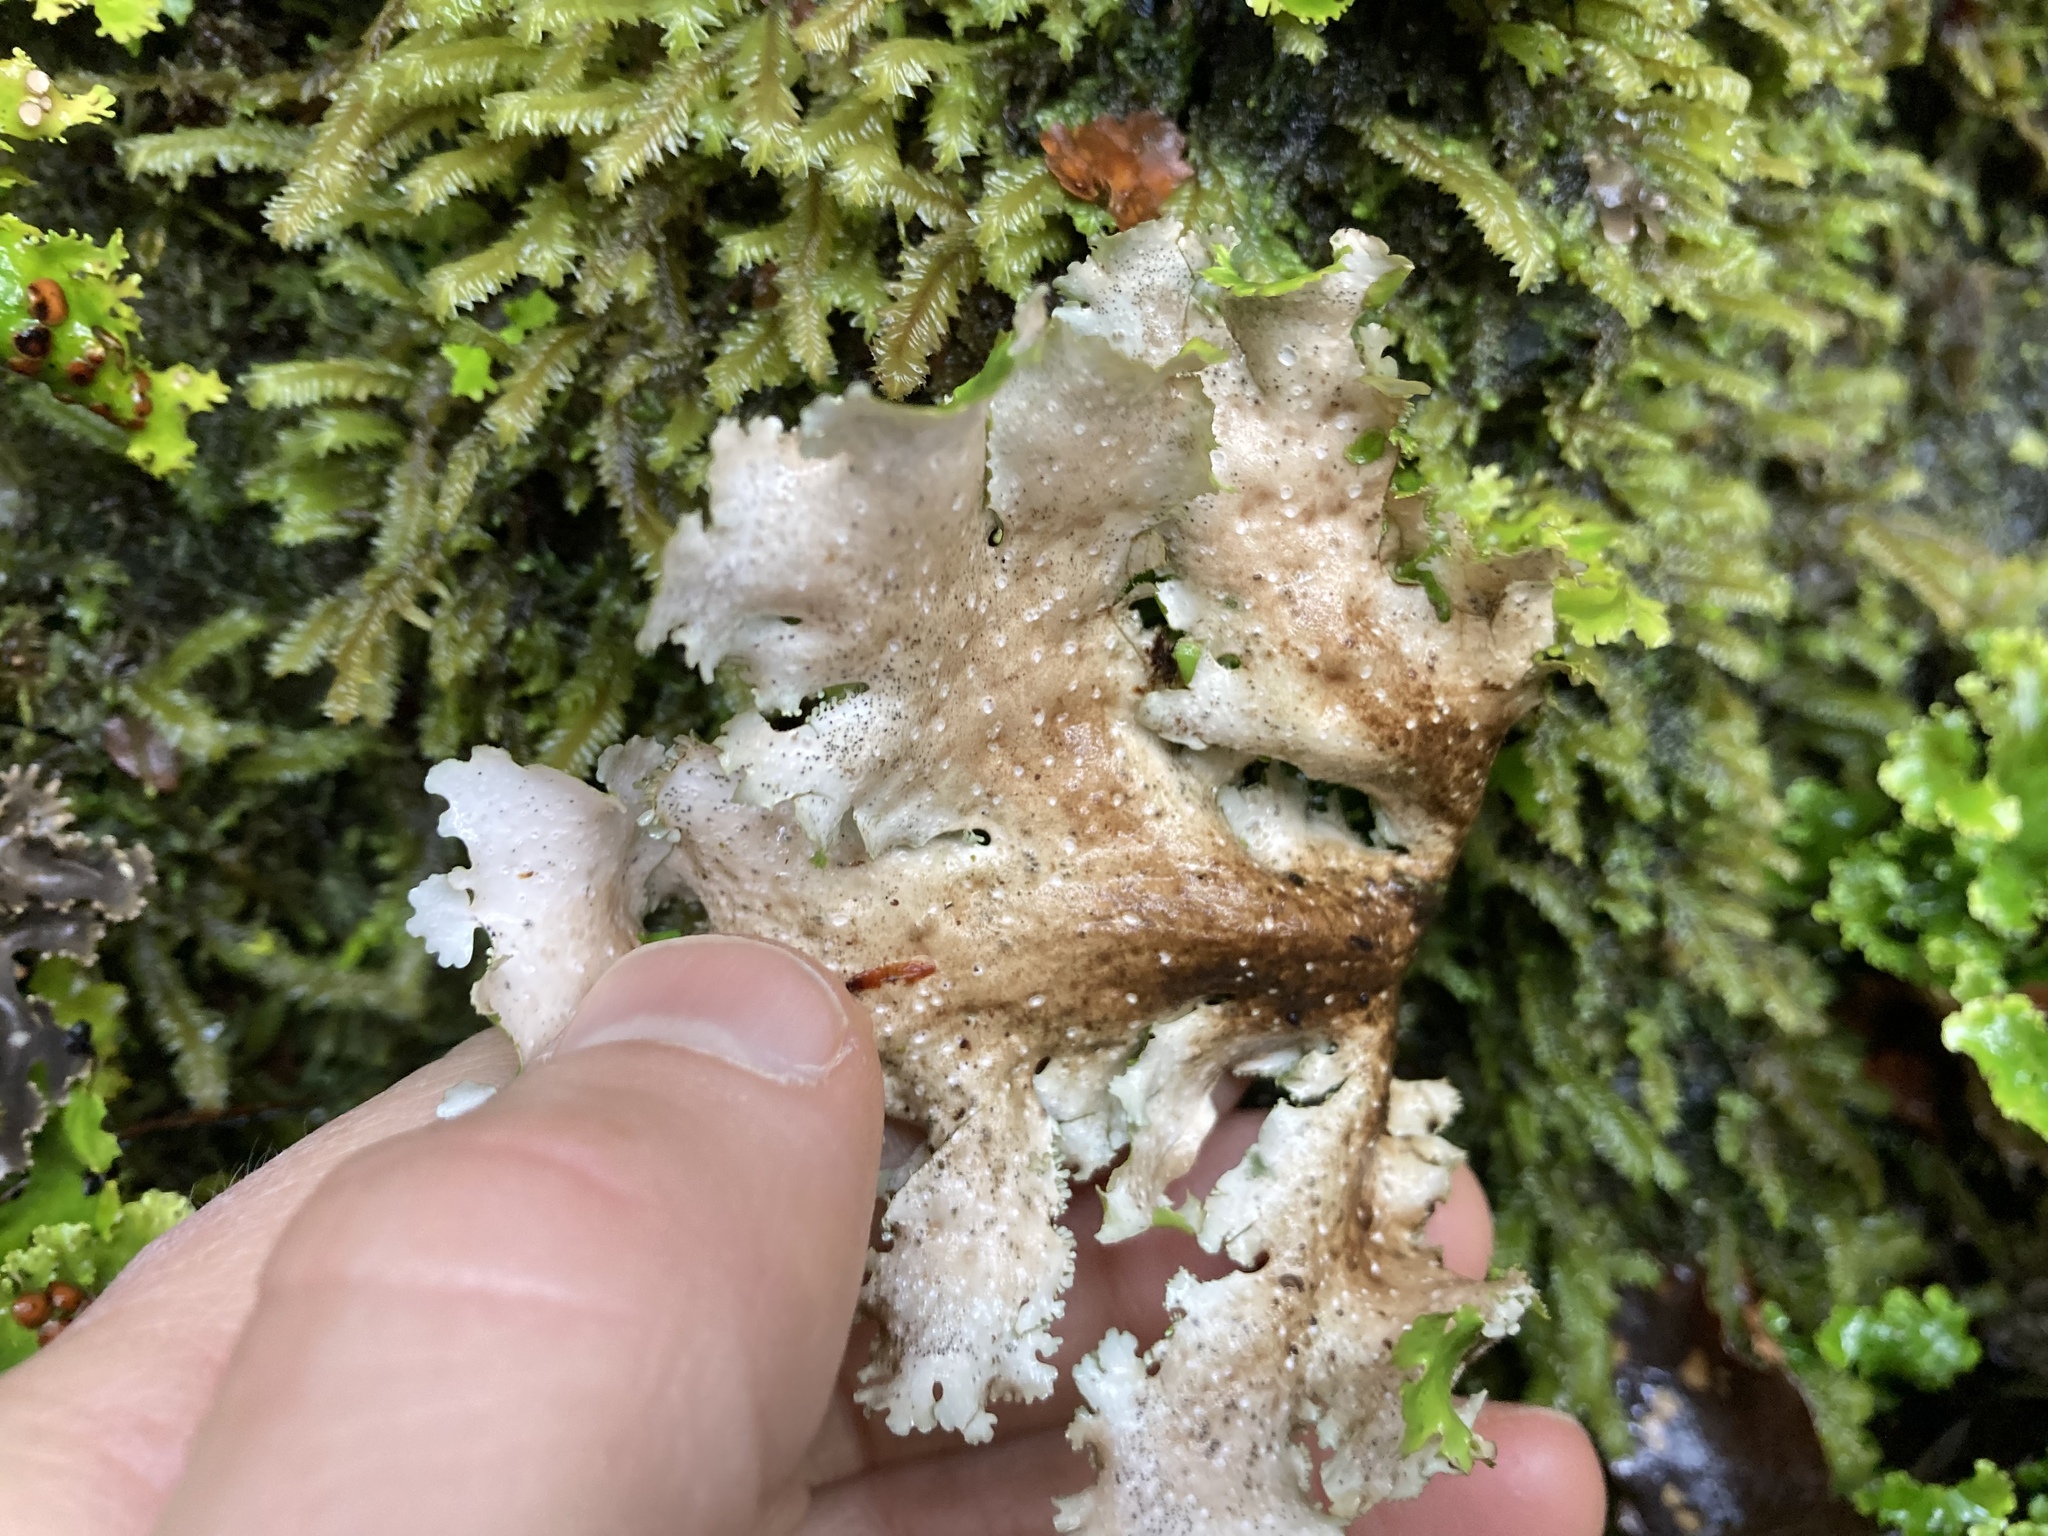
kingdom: Fungi
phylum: Ascomycota
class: Lecanoromycetes
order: Peltigerales
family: Lobariaceae
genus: Sticta
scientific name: Sticta filix
